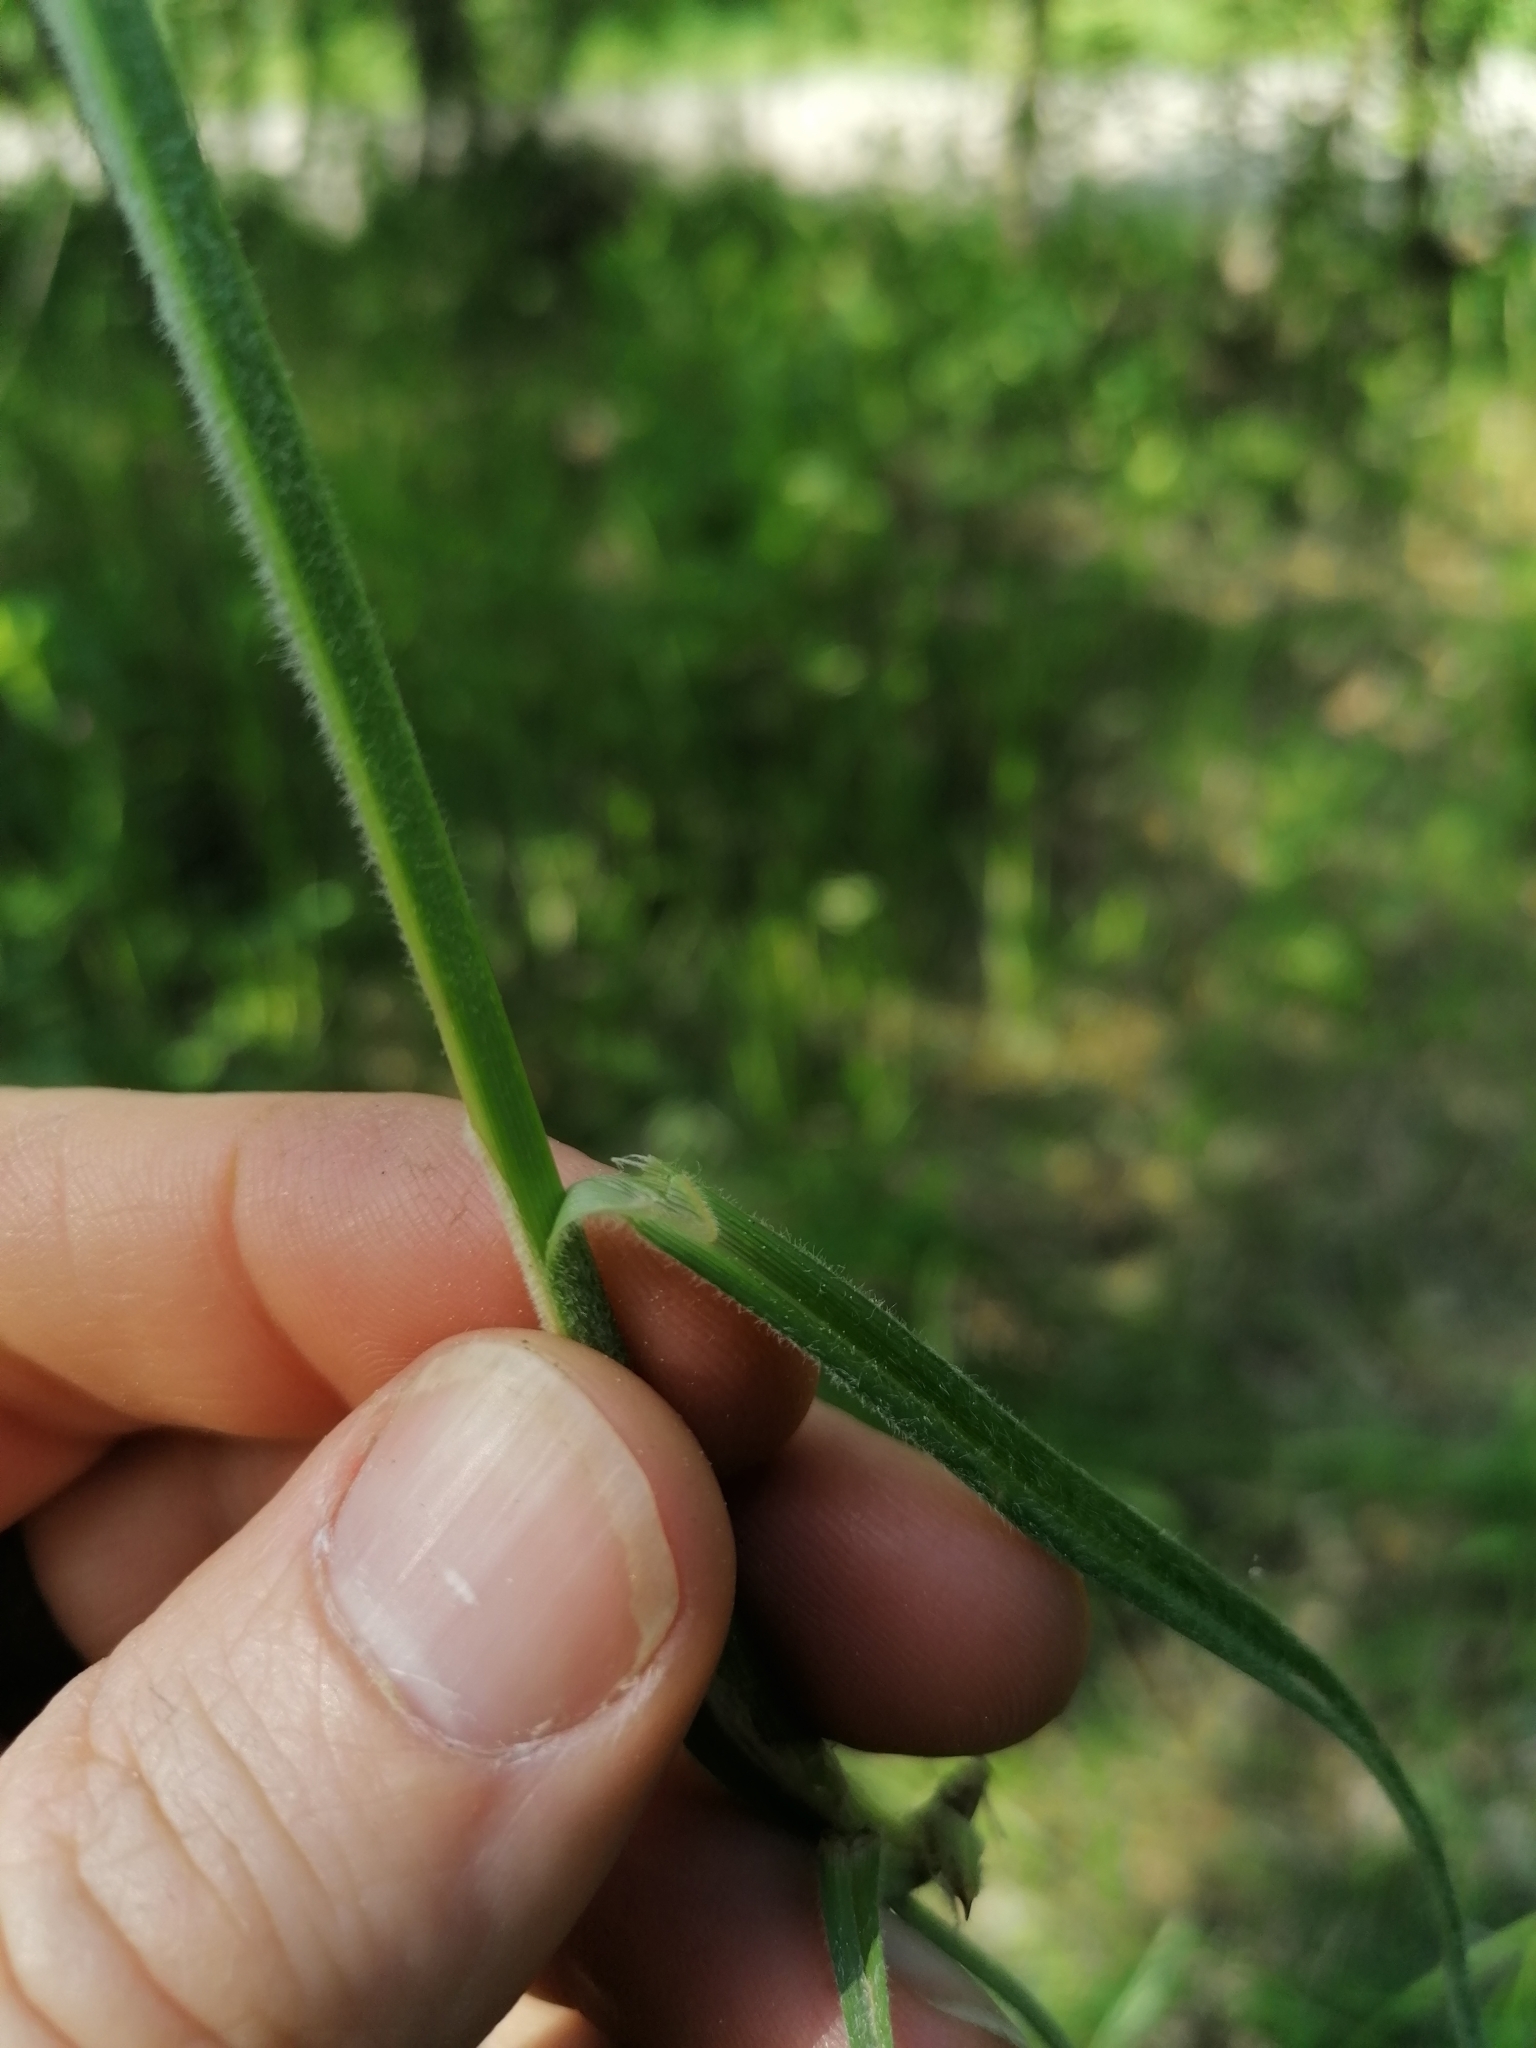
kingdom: Plantae
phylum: Tracheophyta
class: Liliopsida
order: Poales
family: Cyperaceae
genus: Carex
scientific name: Carex hirta
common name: Hairy sedge
